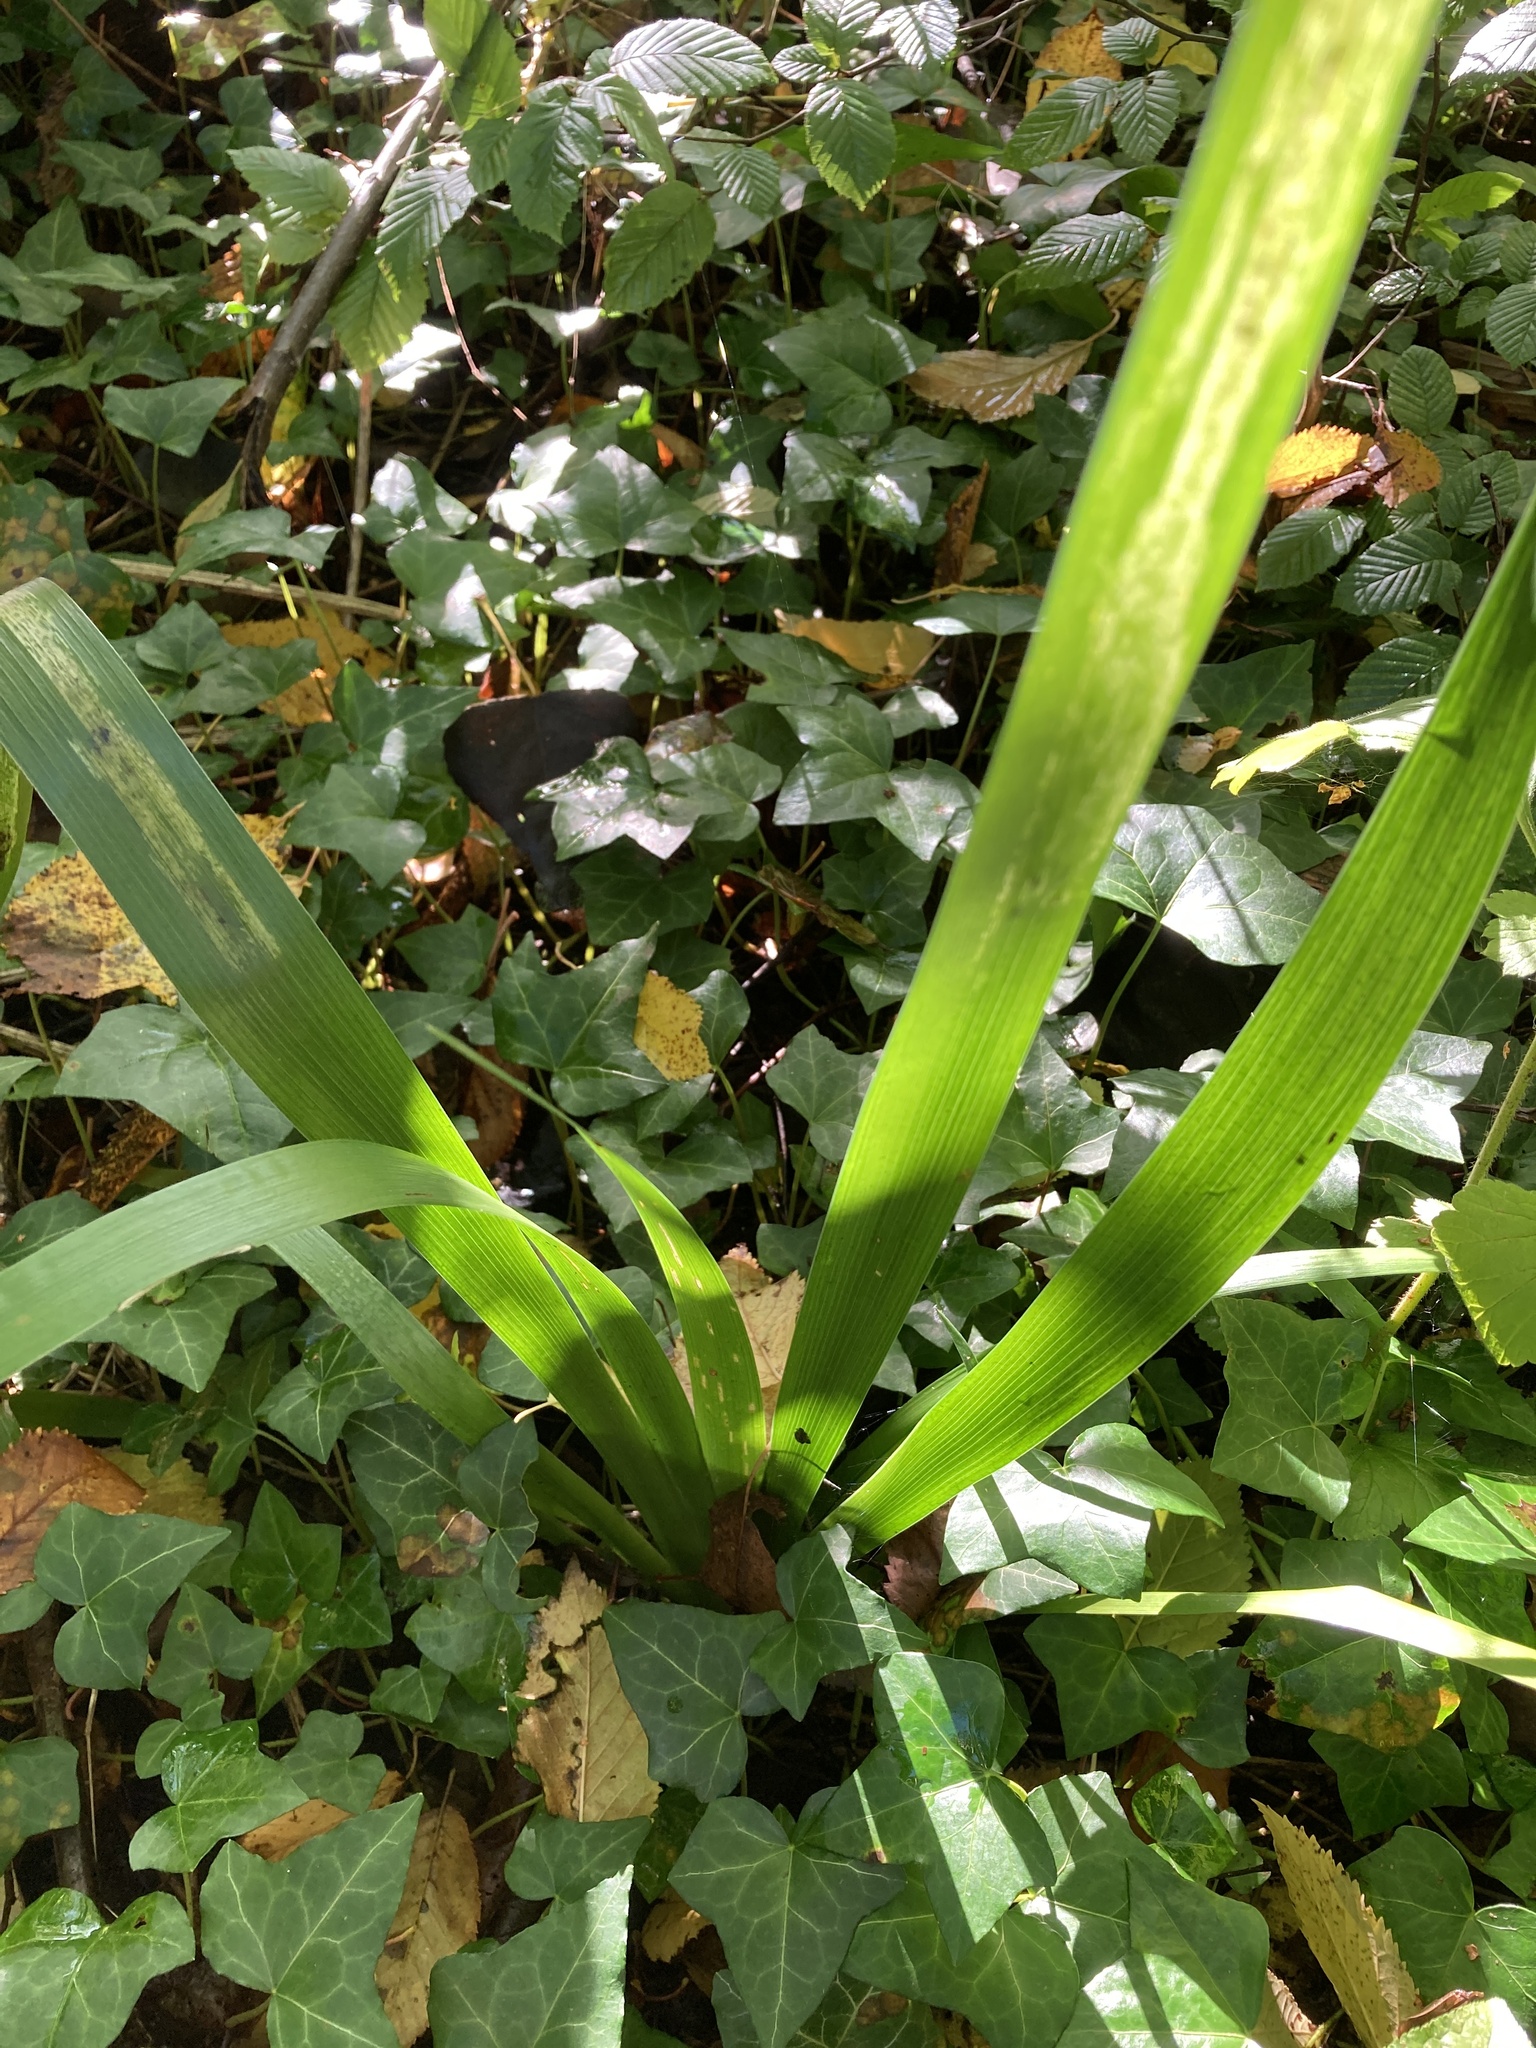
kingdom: Plantae
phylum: Tracheophyta
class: Liliopsida
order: Asparagales
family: Iridaceae
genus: Iris
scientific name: Iris foetidissima
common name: Stinking iris
